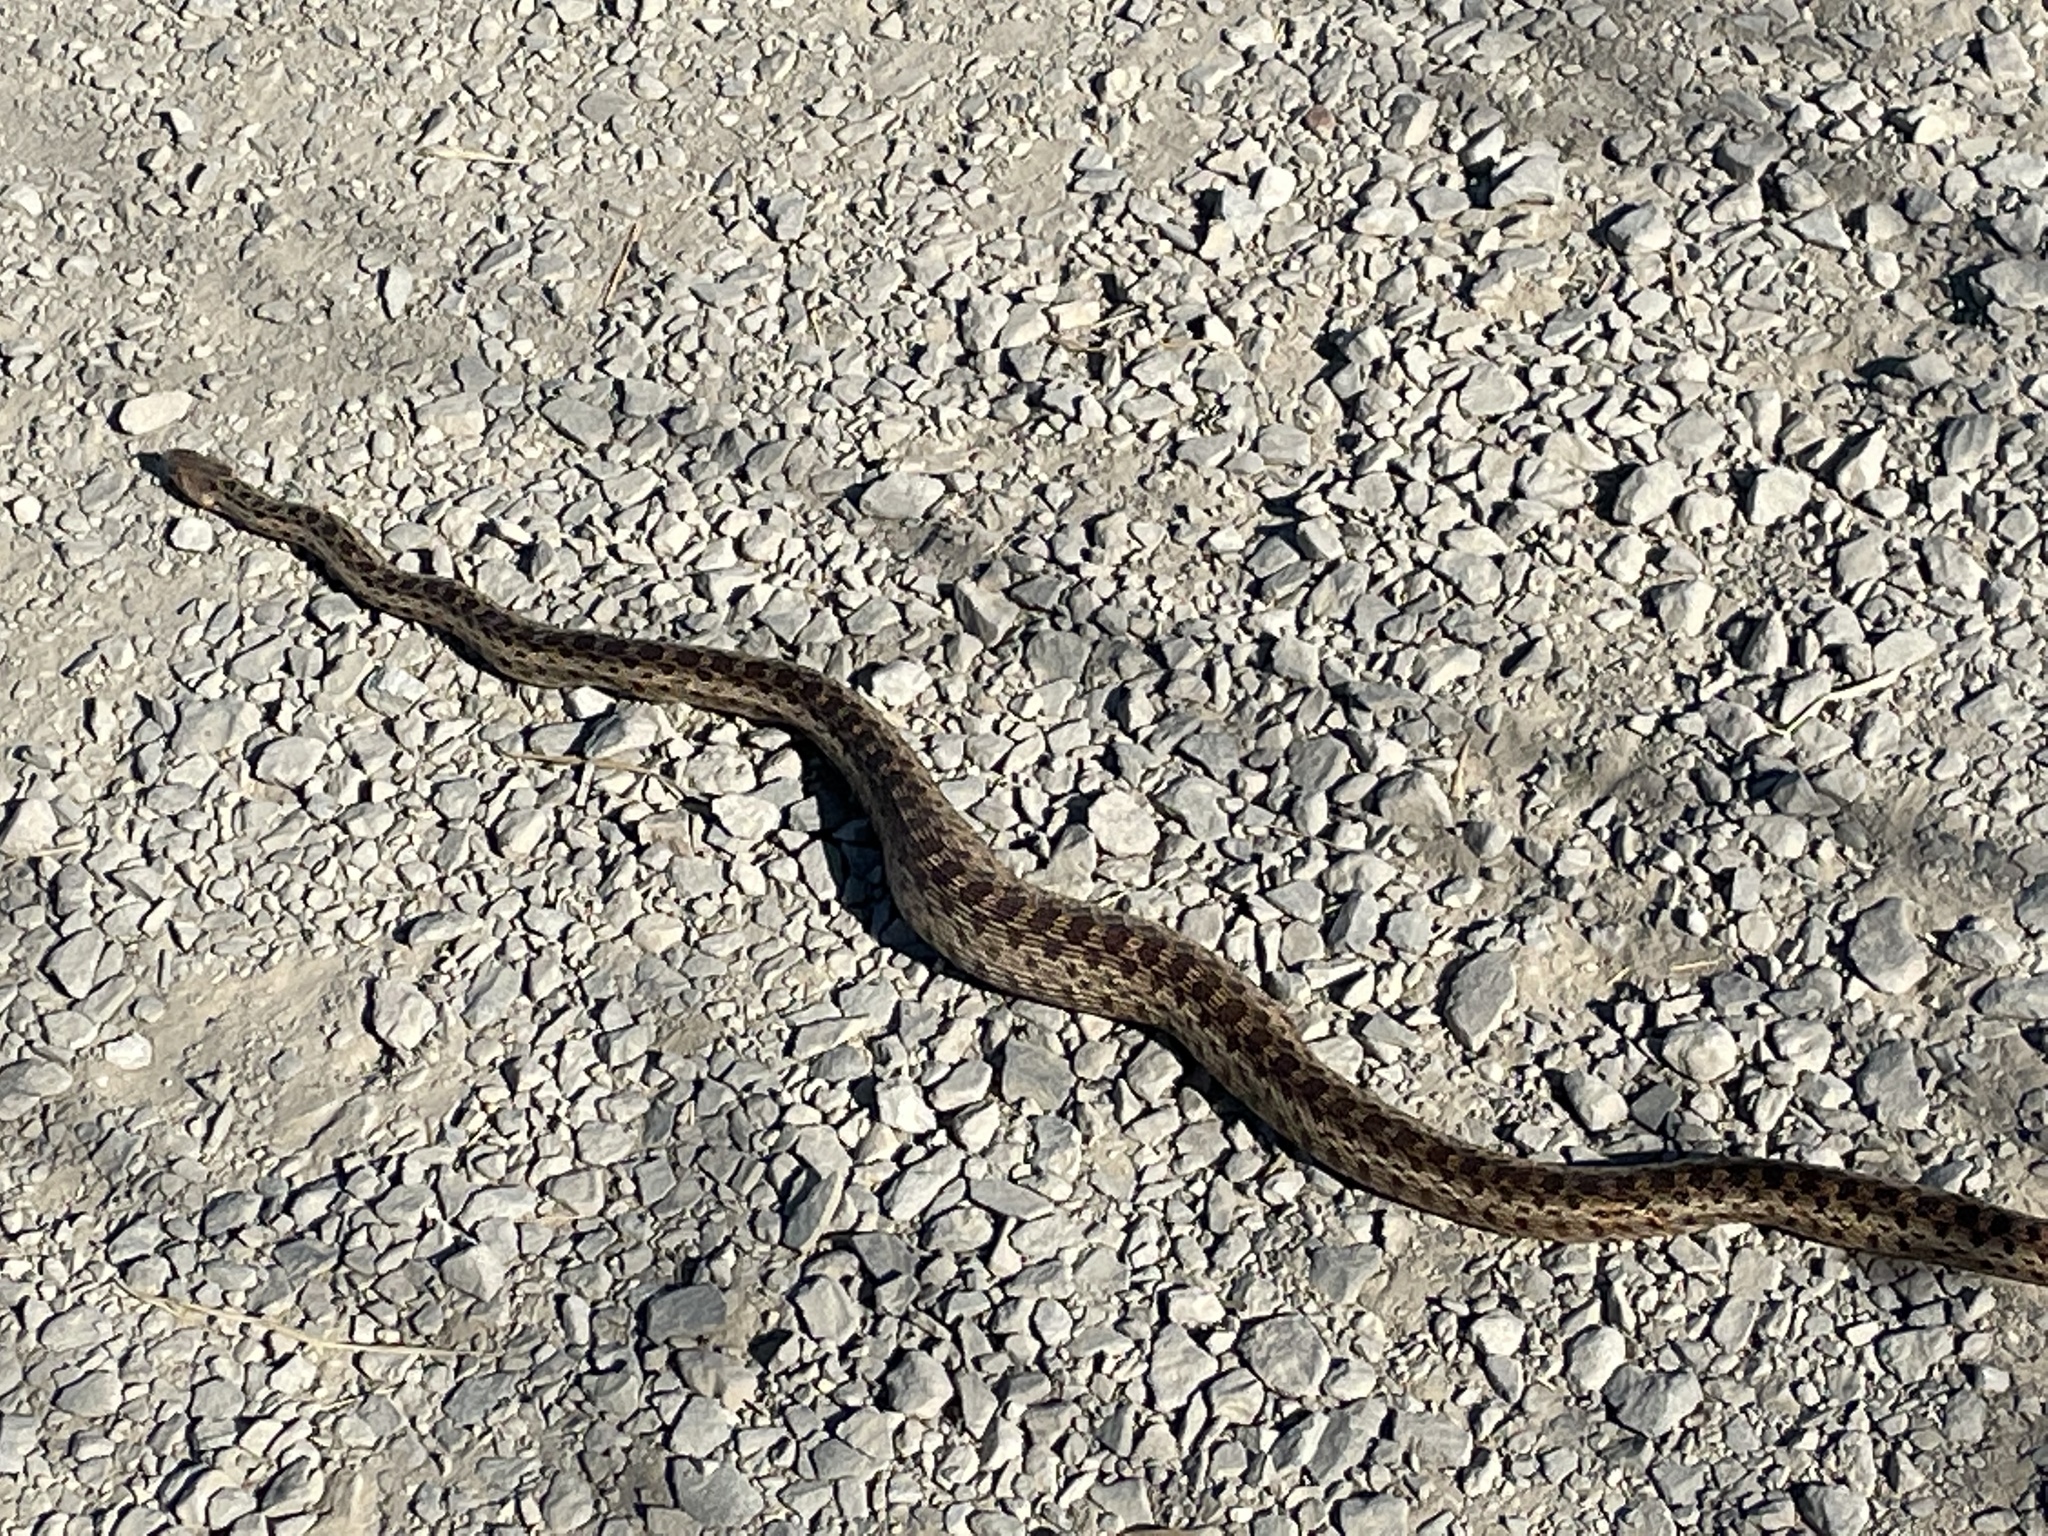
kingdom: Animalia
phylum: Chordata
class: Squamata
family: Colubridae
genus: Pituophis
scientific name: Pituophis catenifer
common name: Gopher snake
